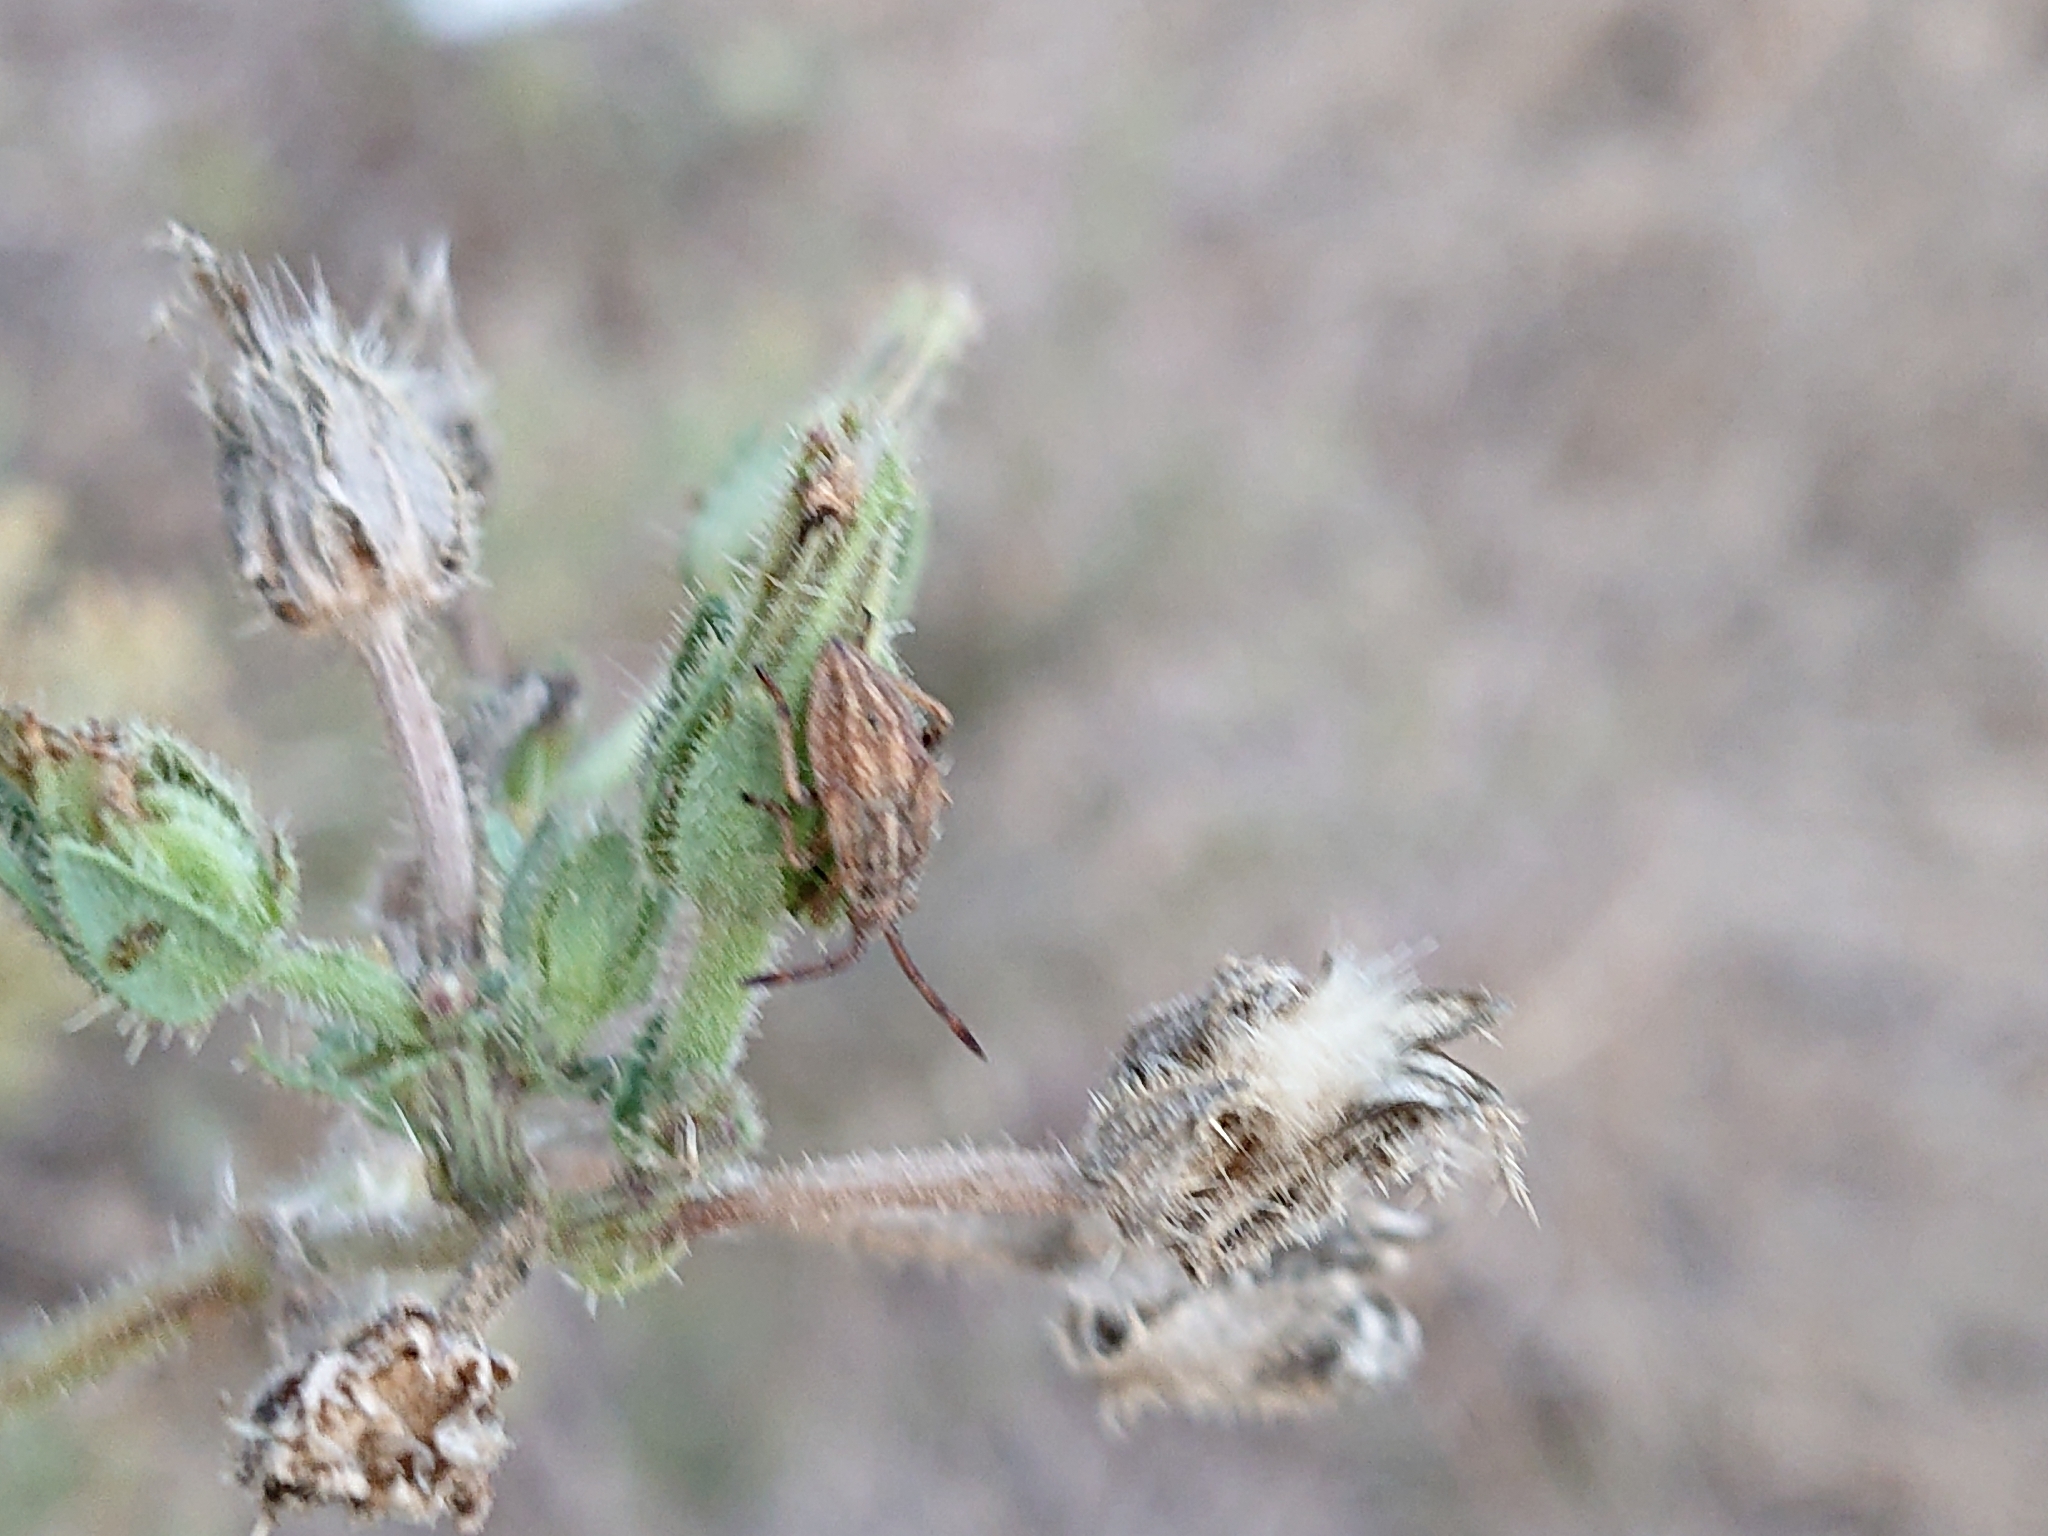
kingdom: Plantae
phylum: Tracheophyta
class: Magnoliopsida
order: Asterales
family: Asteraceae
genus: Helminthotheca
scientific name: Helminthotheca echioides
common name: Ox-tongue
